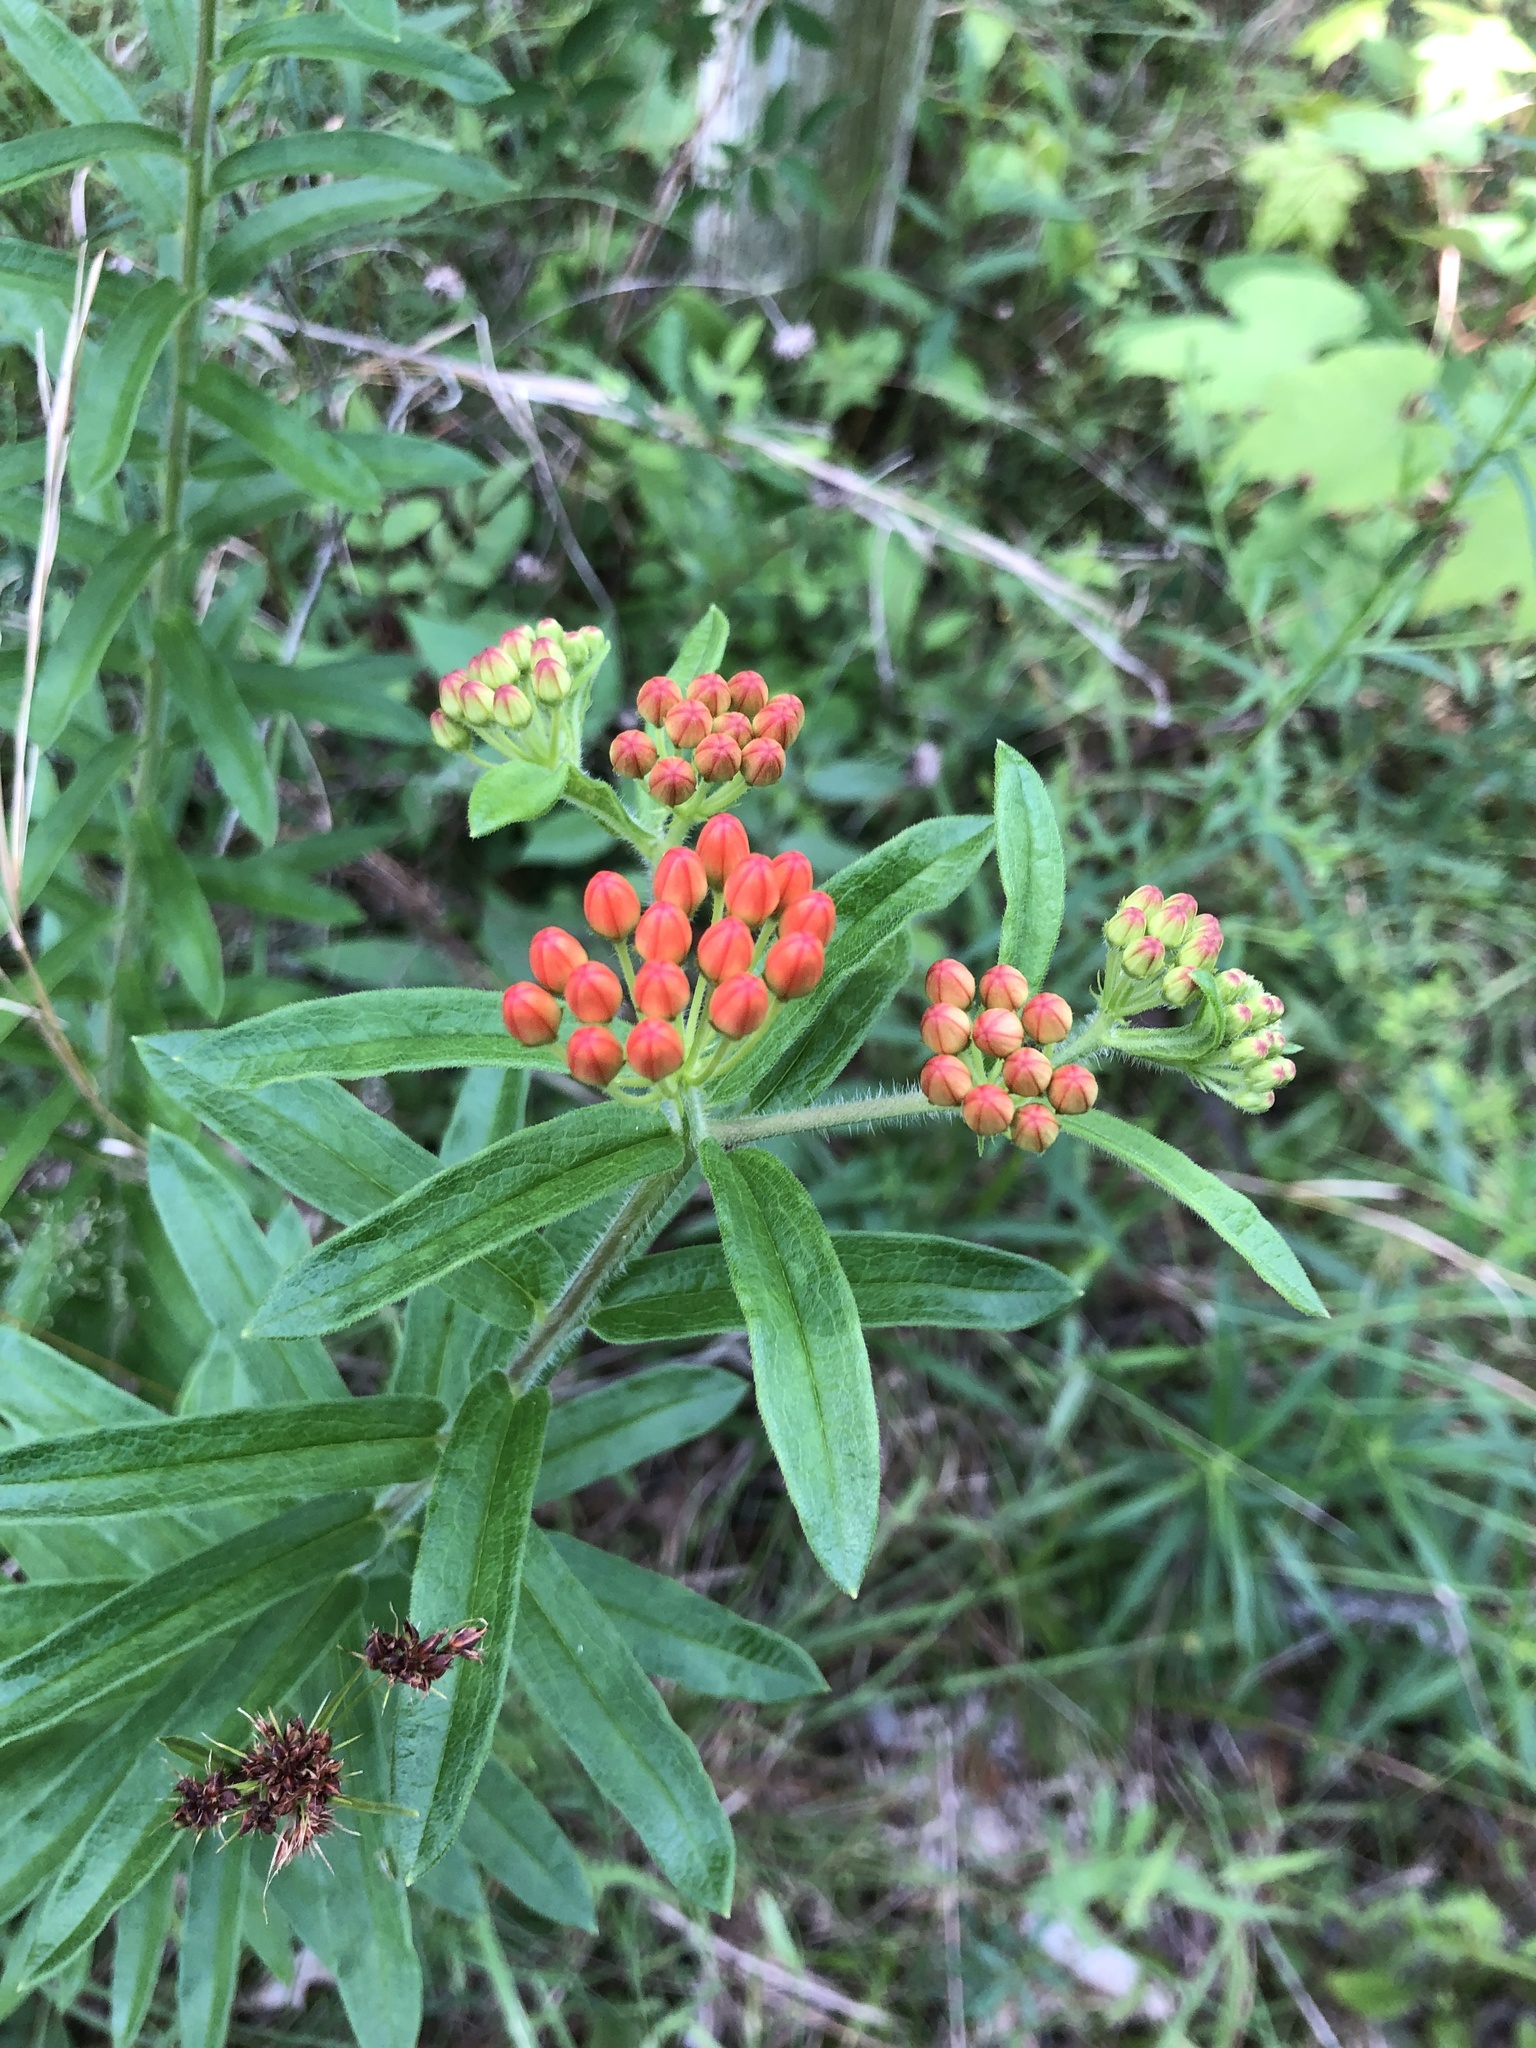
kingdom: Plantae
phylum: Tracheophyta
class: Magnoliopsida
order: Gentianales
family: Apocynaceae
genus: Asclepias
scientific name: Asclepias tuberosa
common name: Butterfly milkweed
